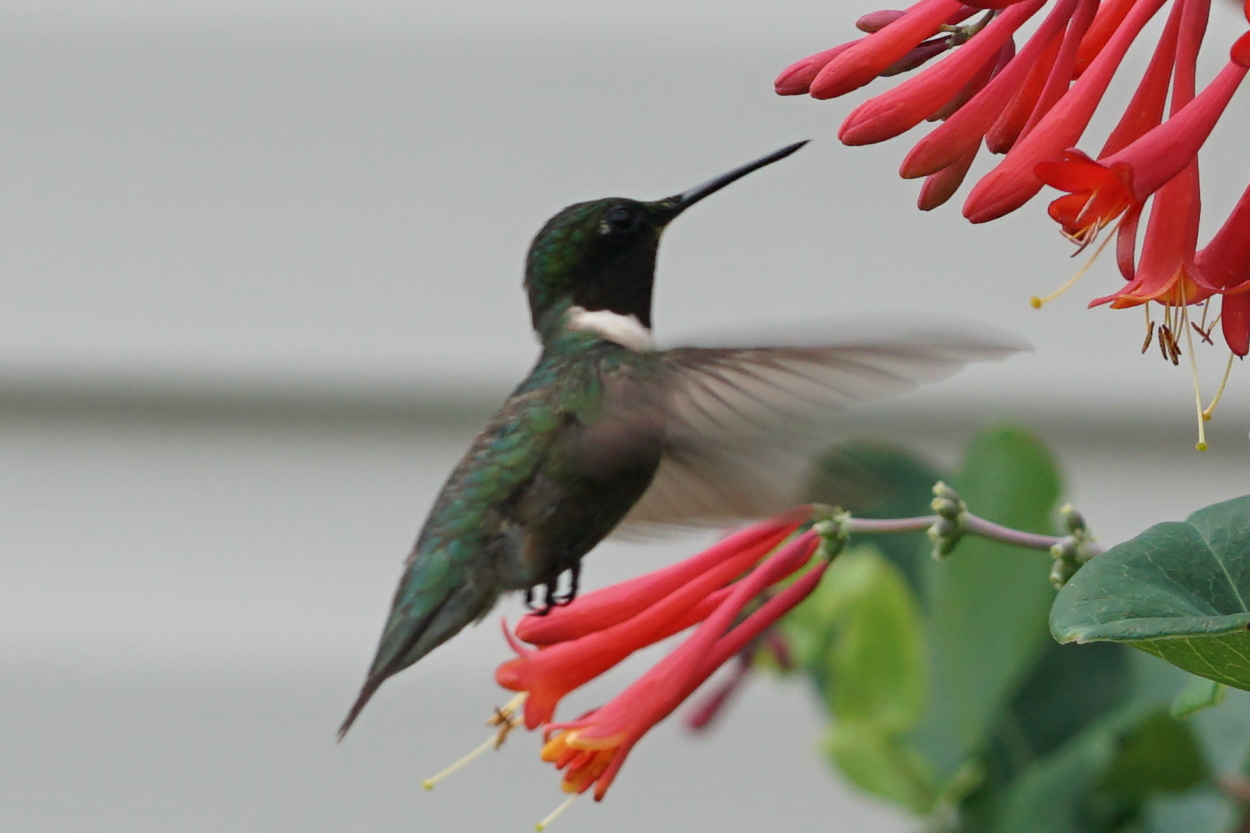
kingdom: Animalia
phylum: Chordata
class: Aves
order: Apodiformes
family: Trochilidae
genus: Archilochus
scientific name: Archilochus colubris
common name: Ruby-throated hummingbird
